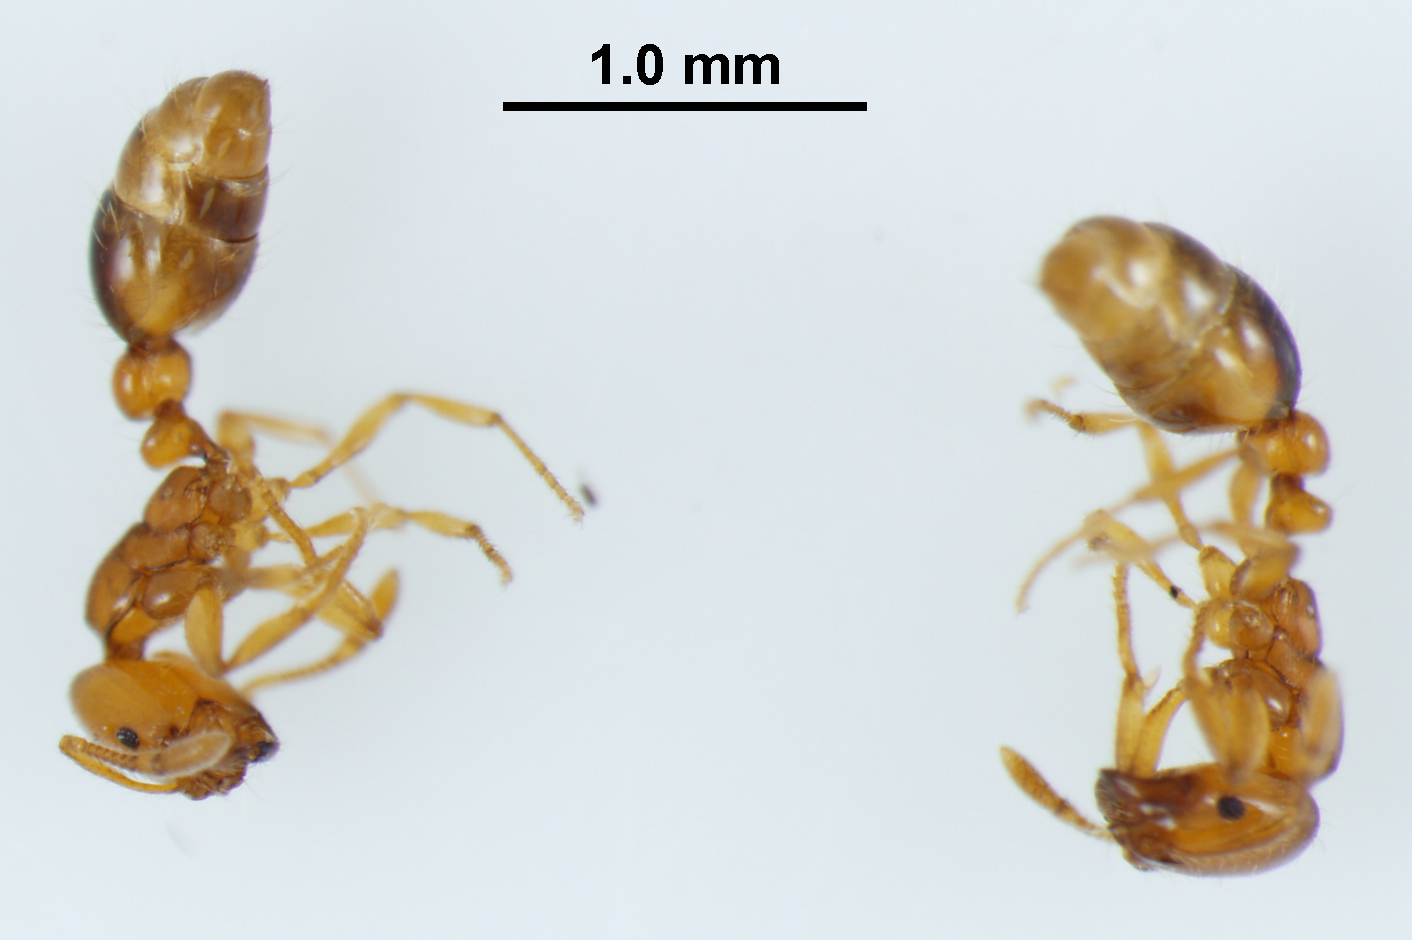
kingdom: Animalia
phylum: Arthropoda
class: Insecta
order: Hymenoptera
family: Formicidae
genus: Solenopsis
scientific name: Solenopsis globularia
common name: Ant
